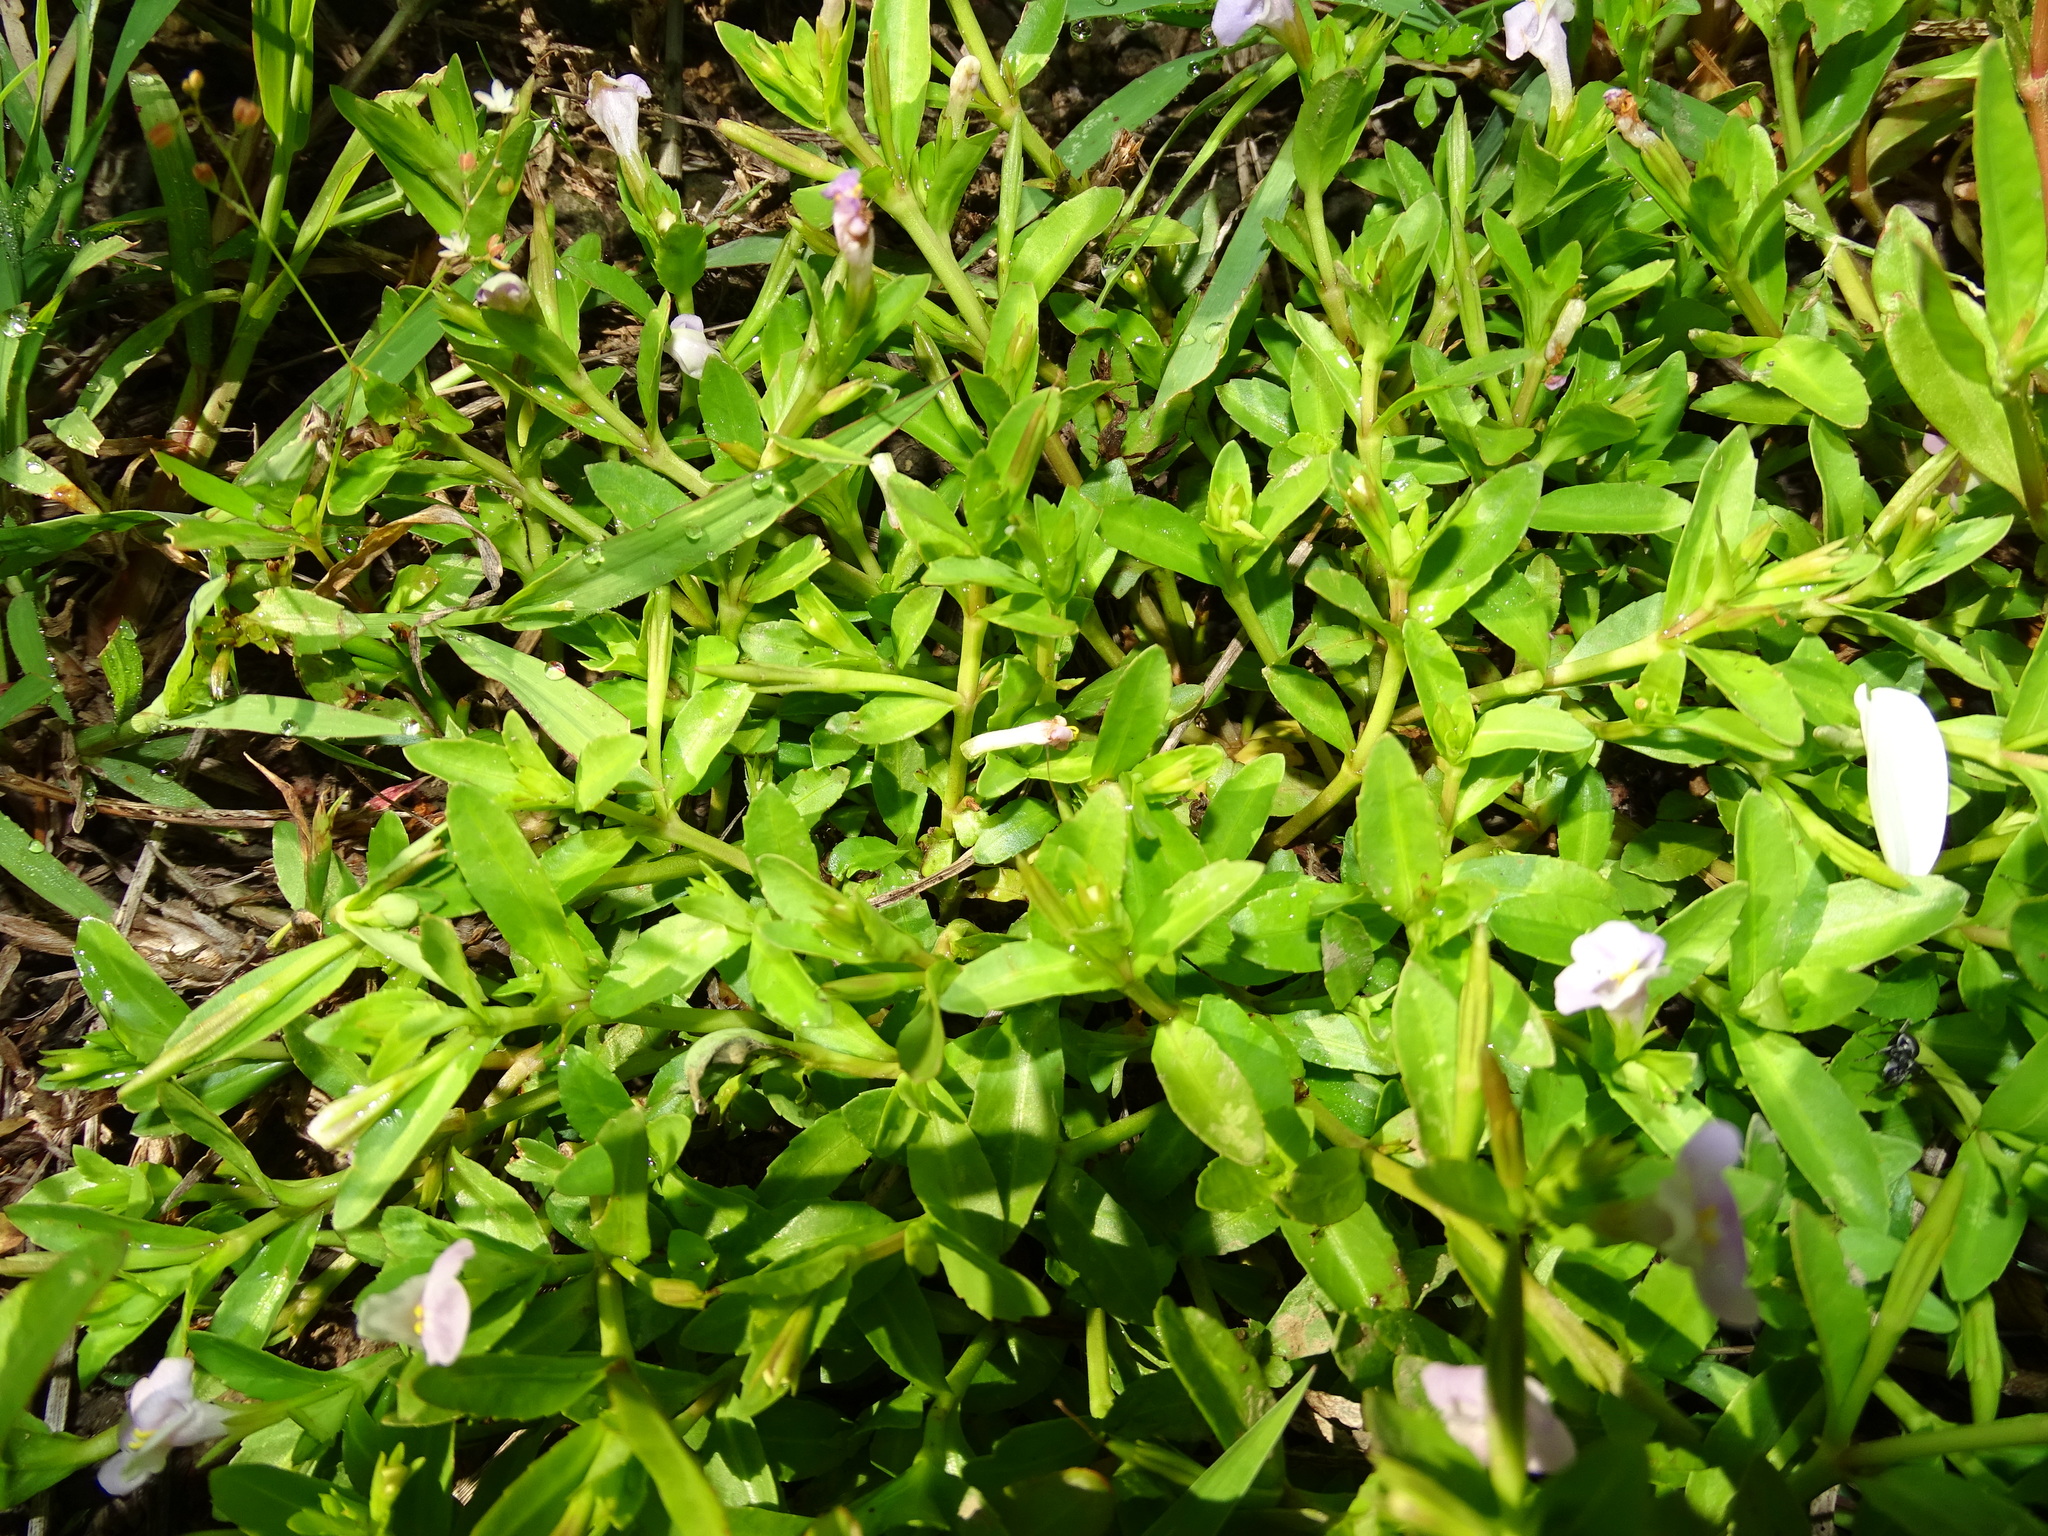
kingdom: Plantae
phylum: Tracheophyta
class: Magnoliopsida
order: Lamiales
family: Linderniaceae
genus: Bonnaya
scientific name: Bonnaya antipoda
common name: Sparrow false pimpernel
